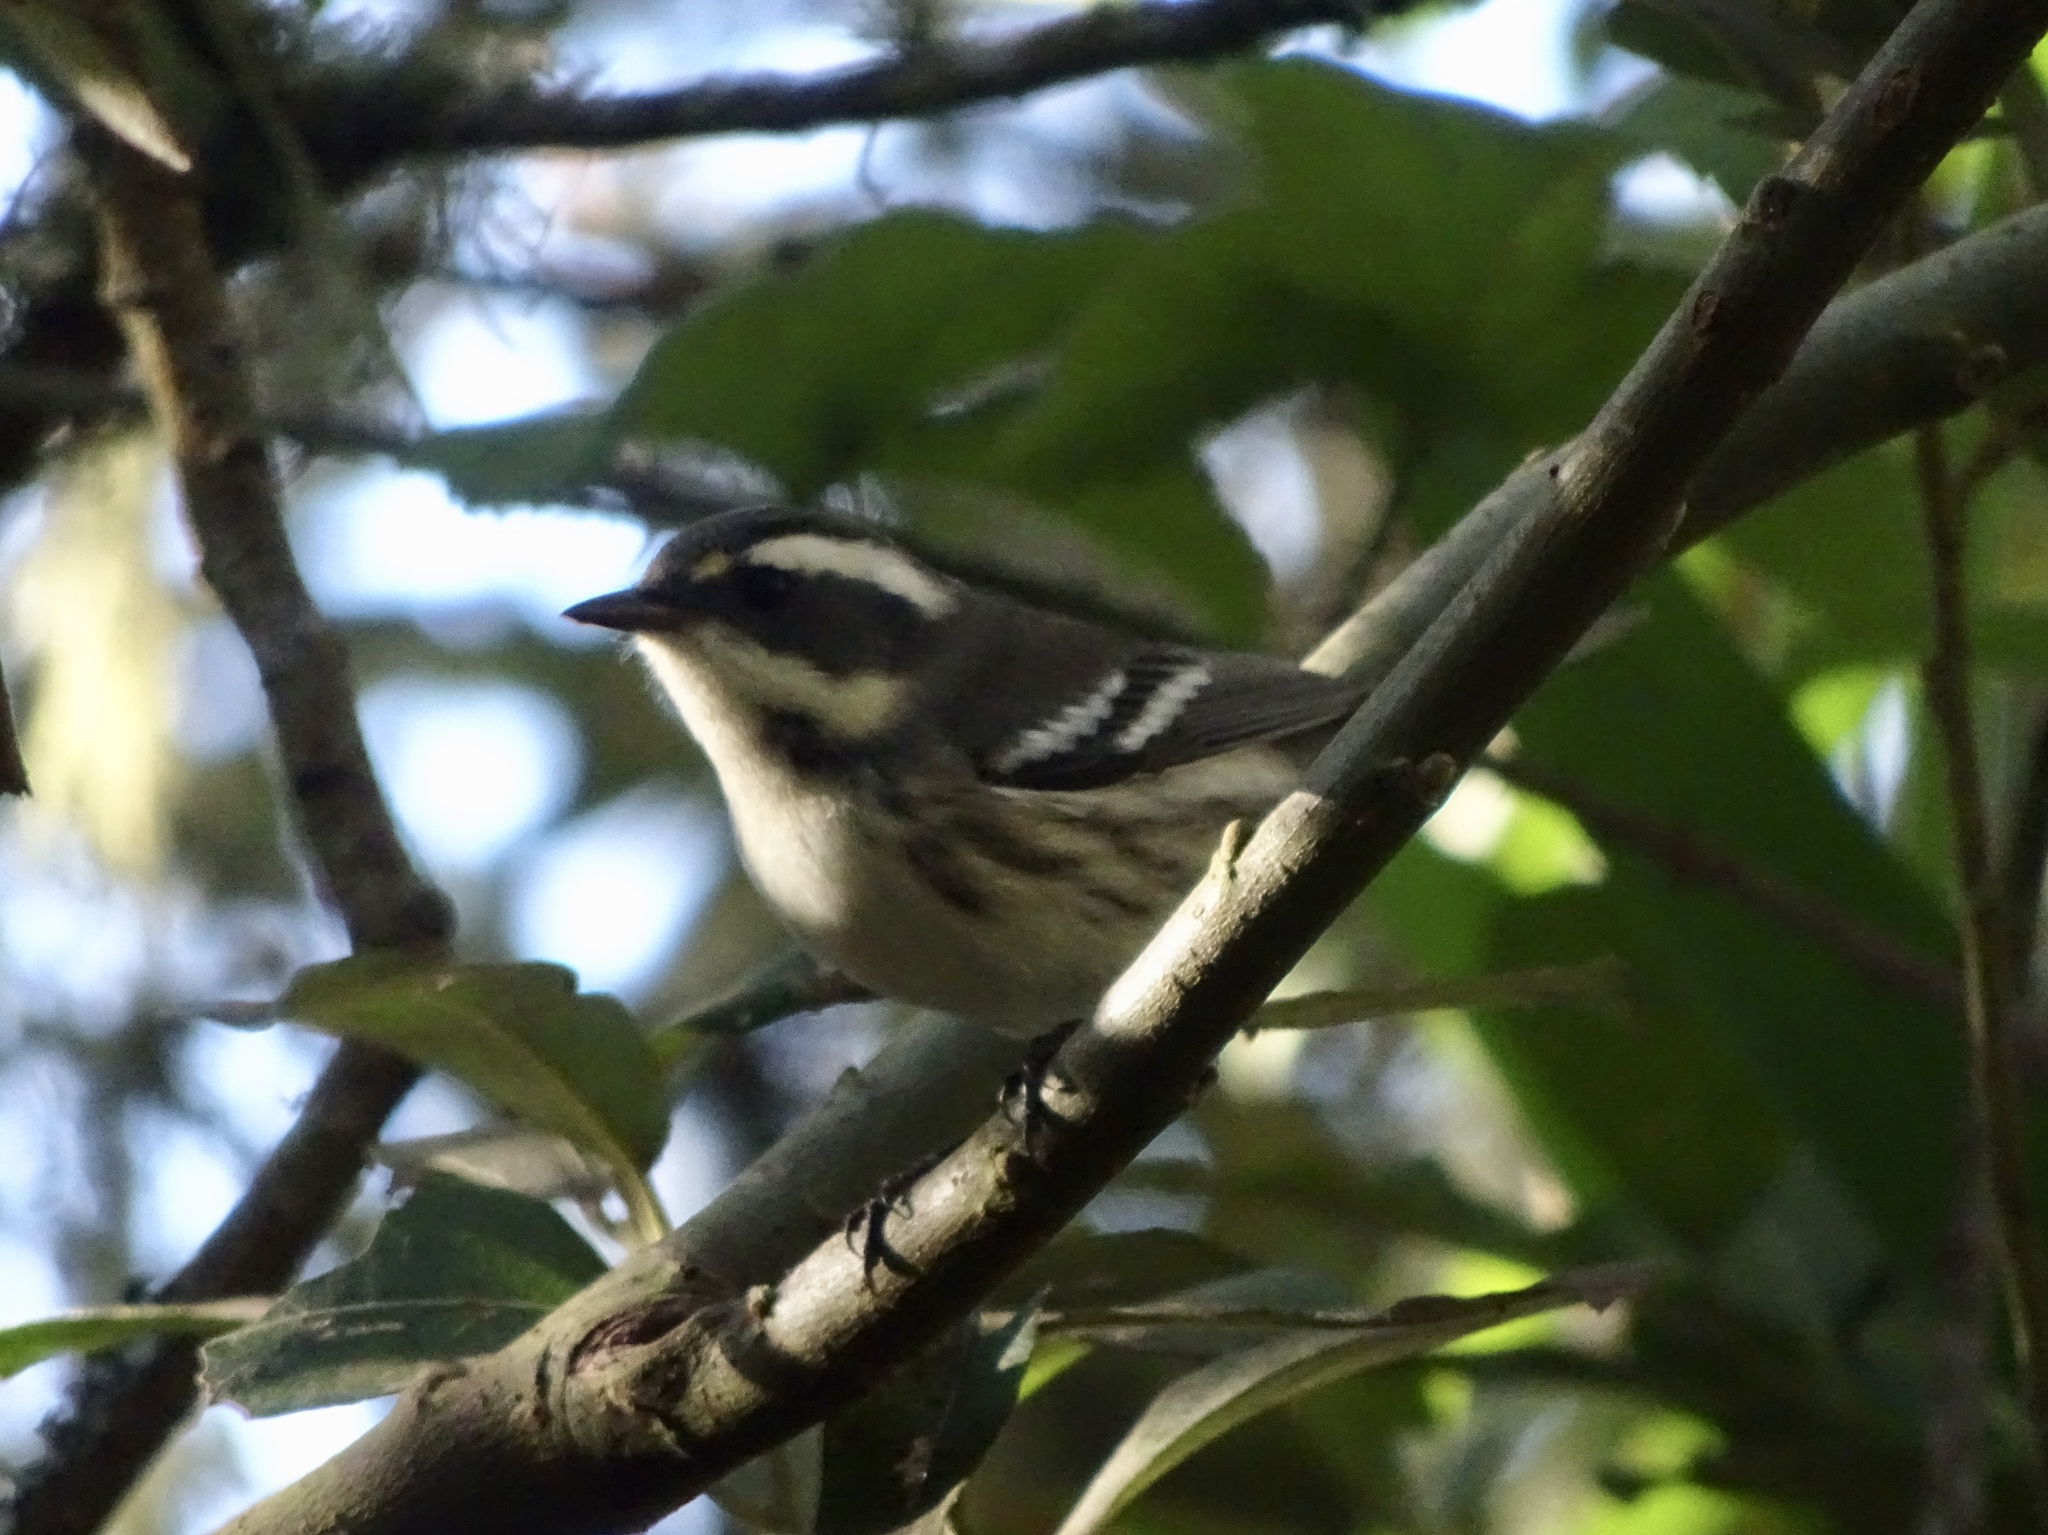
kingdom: Animalia
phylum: Chordata
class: Aves
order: Passeriformes
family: Parulidae
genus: Setophaga
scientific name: Setophaga nigrescens
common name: Black-throated gray warbler
